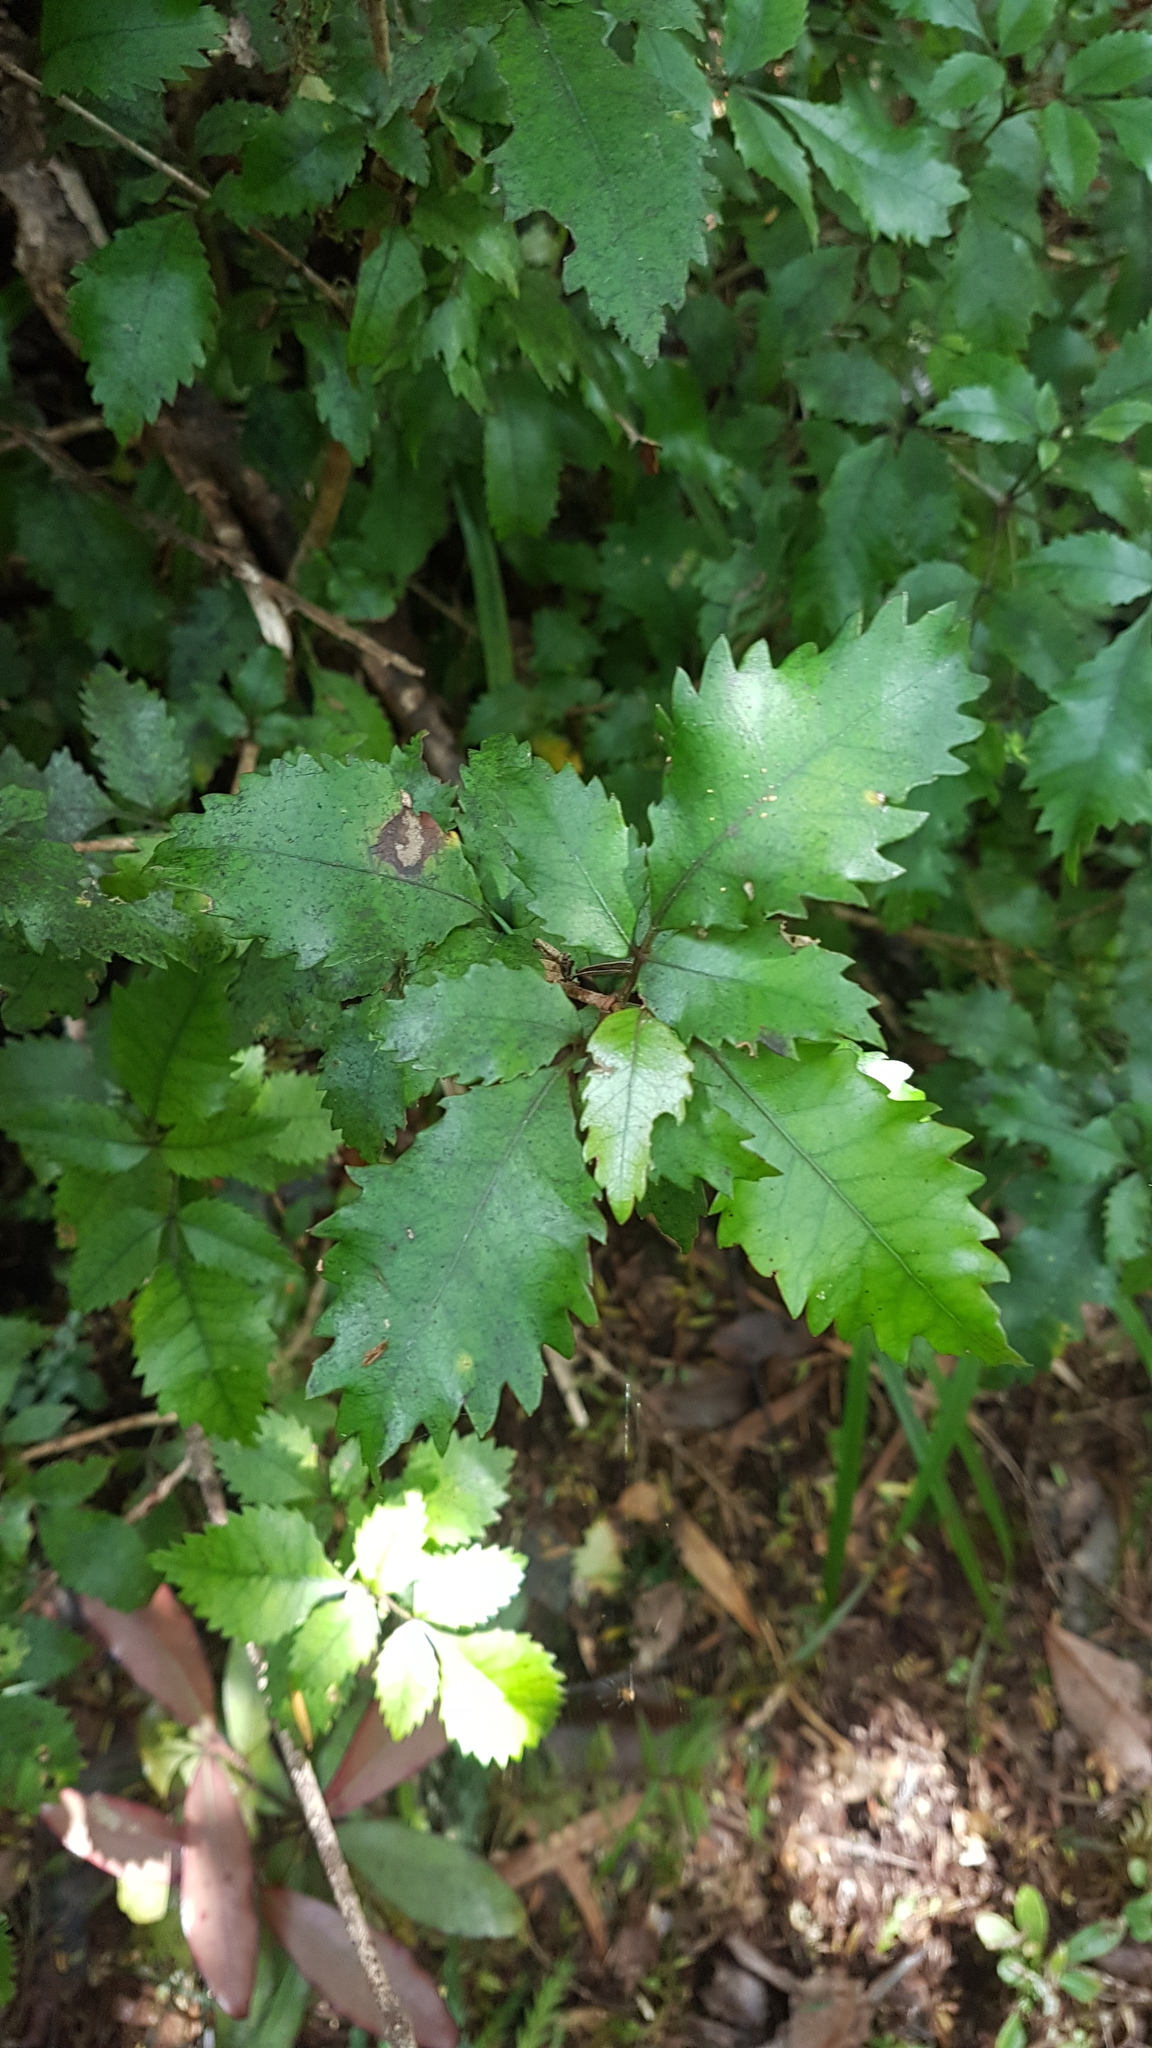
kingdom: Plantae
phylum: Tracheophyta
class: Magnoliopsida
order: Oxalidales
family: Cunoniaceae
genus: Pterophylla
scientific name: Pterophylla racemosa
